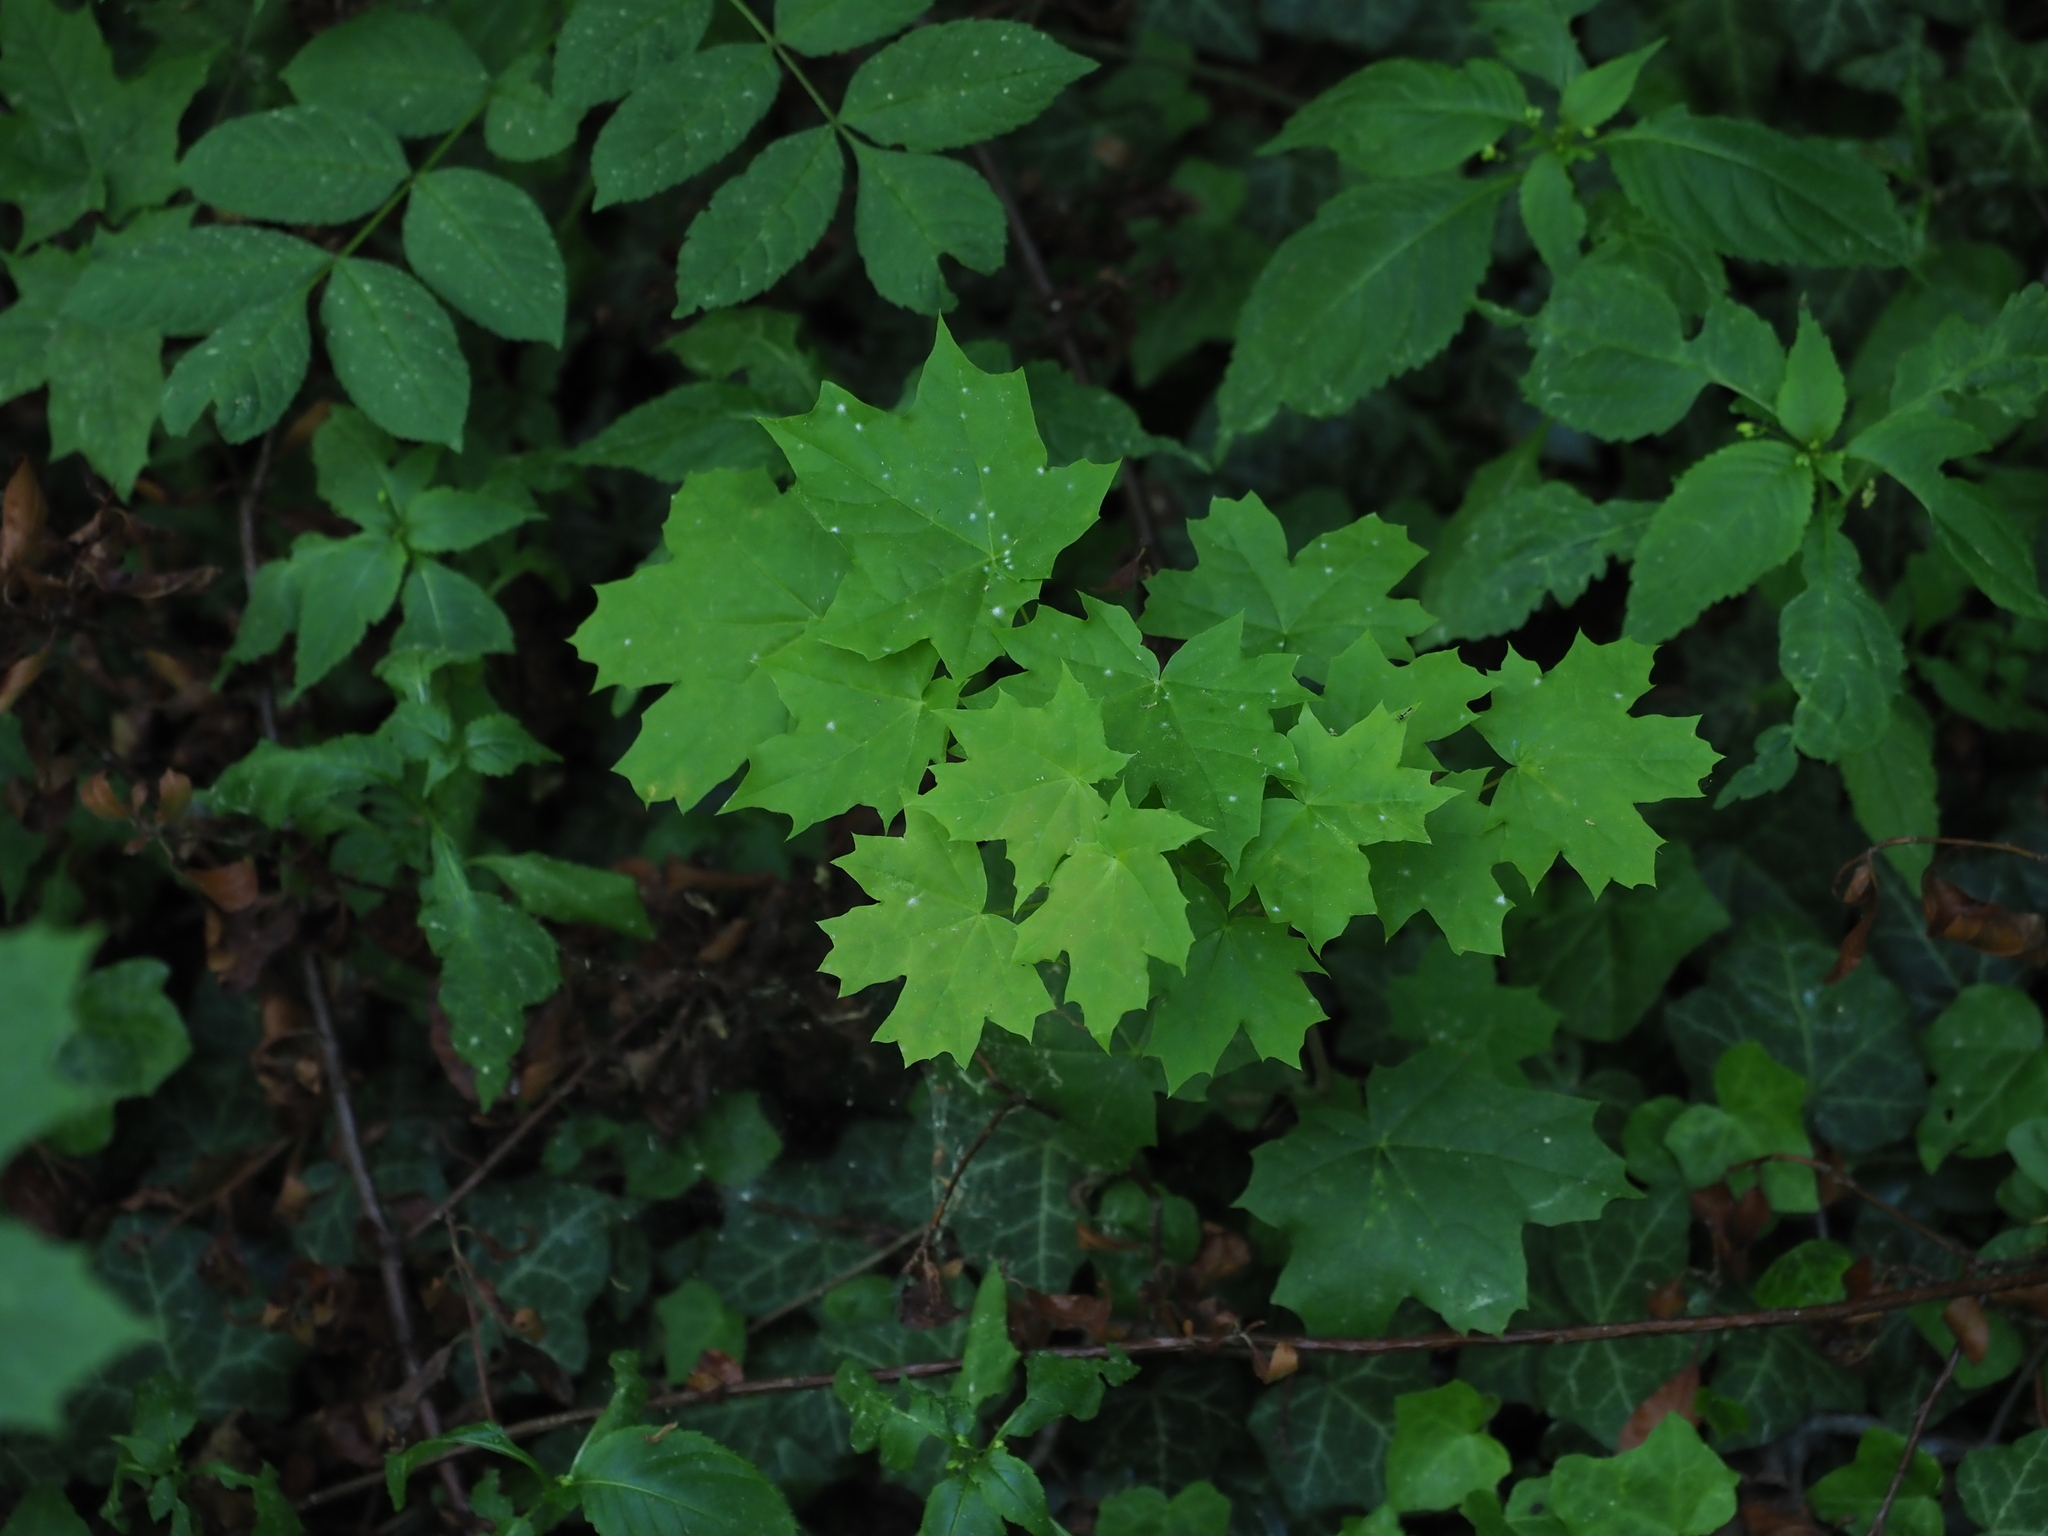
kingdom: Plantae
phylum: Tracheophyta
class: Magnoliopsida
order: Sapindales
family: Sapindaceae
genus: Acer
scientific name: Acer platanoides
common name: Norway maple
